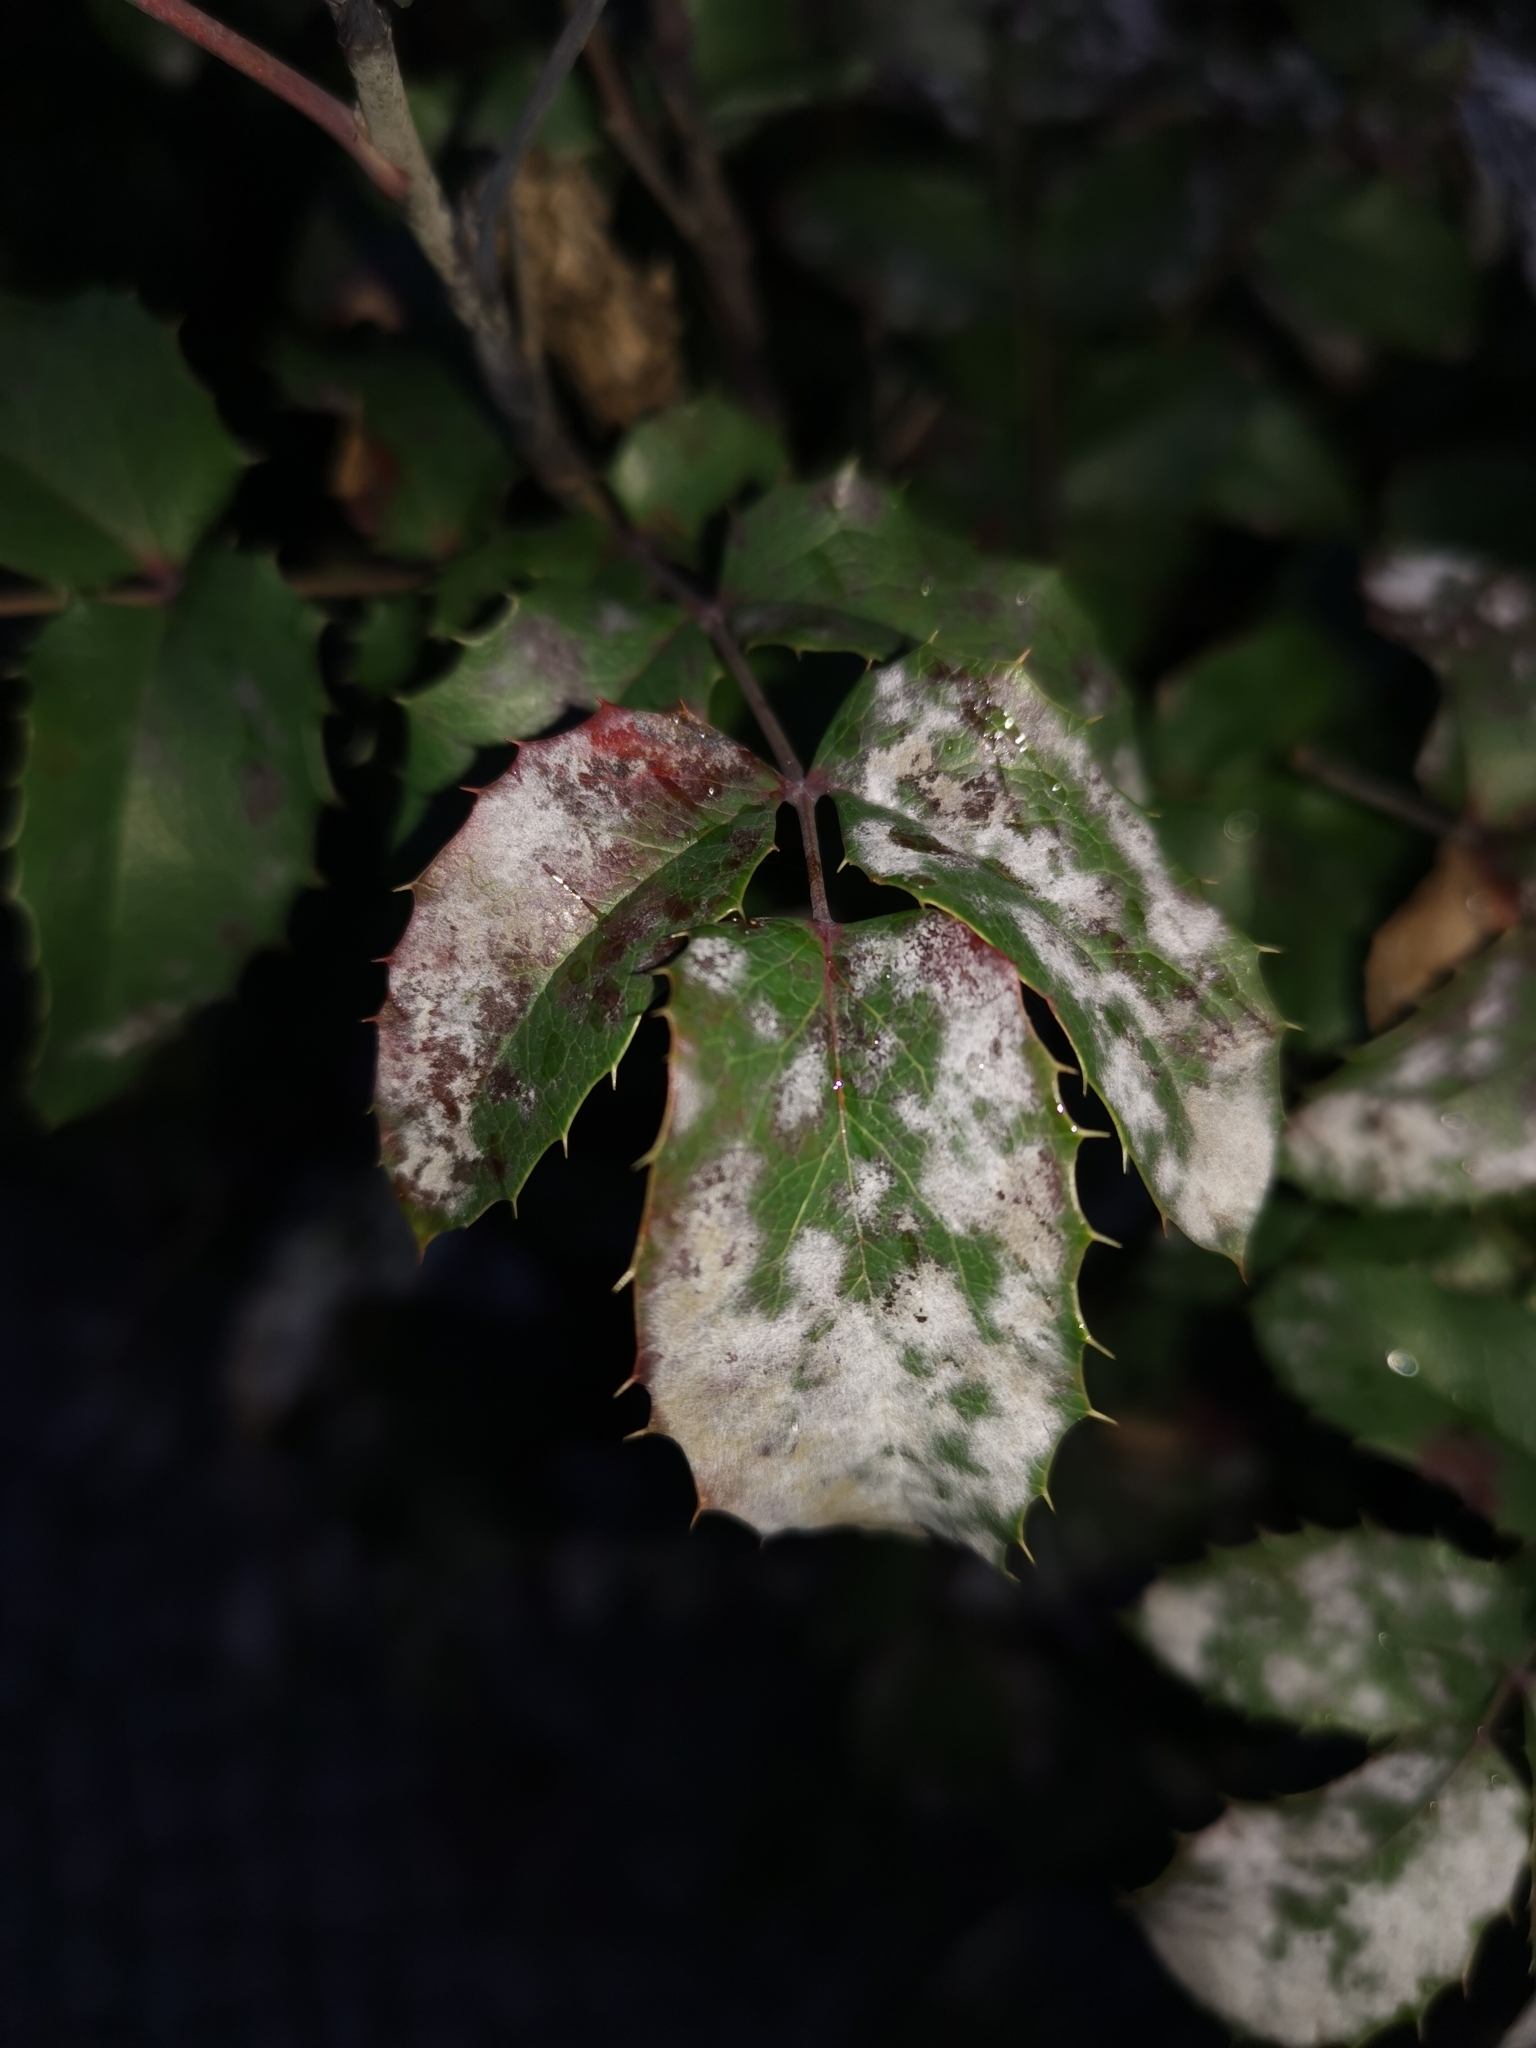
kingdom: Fungi
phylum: Ascomycota
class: Leotiomycetes
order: Helotiales
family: Erysiphaceae
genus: Erysiphe
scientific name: Erysiphe berberidis
